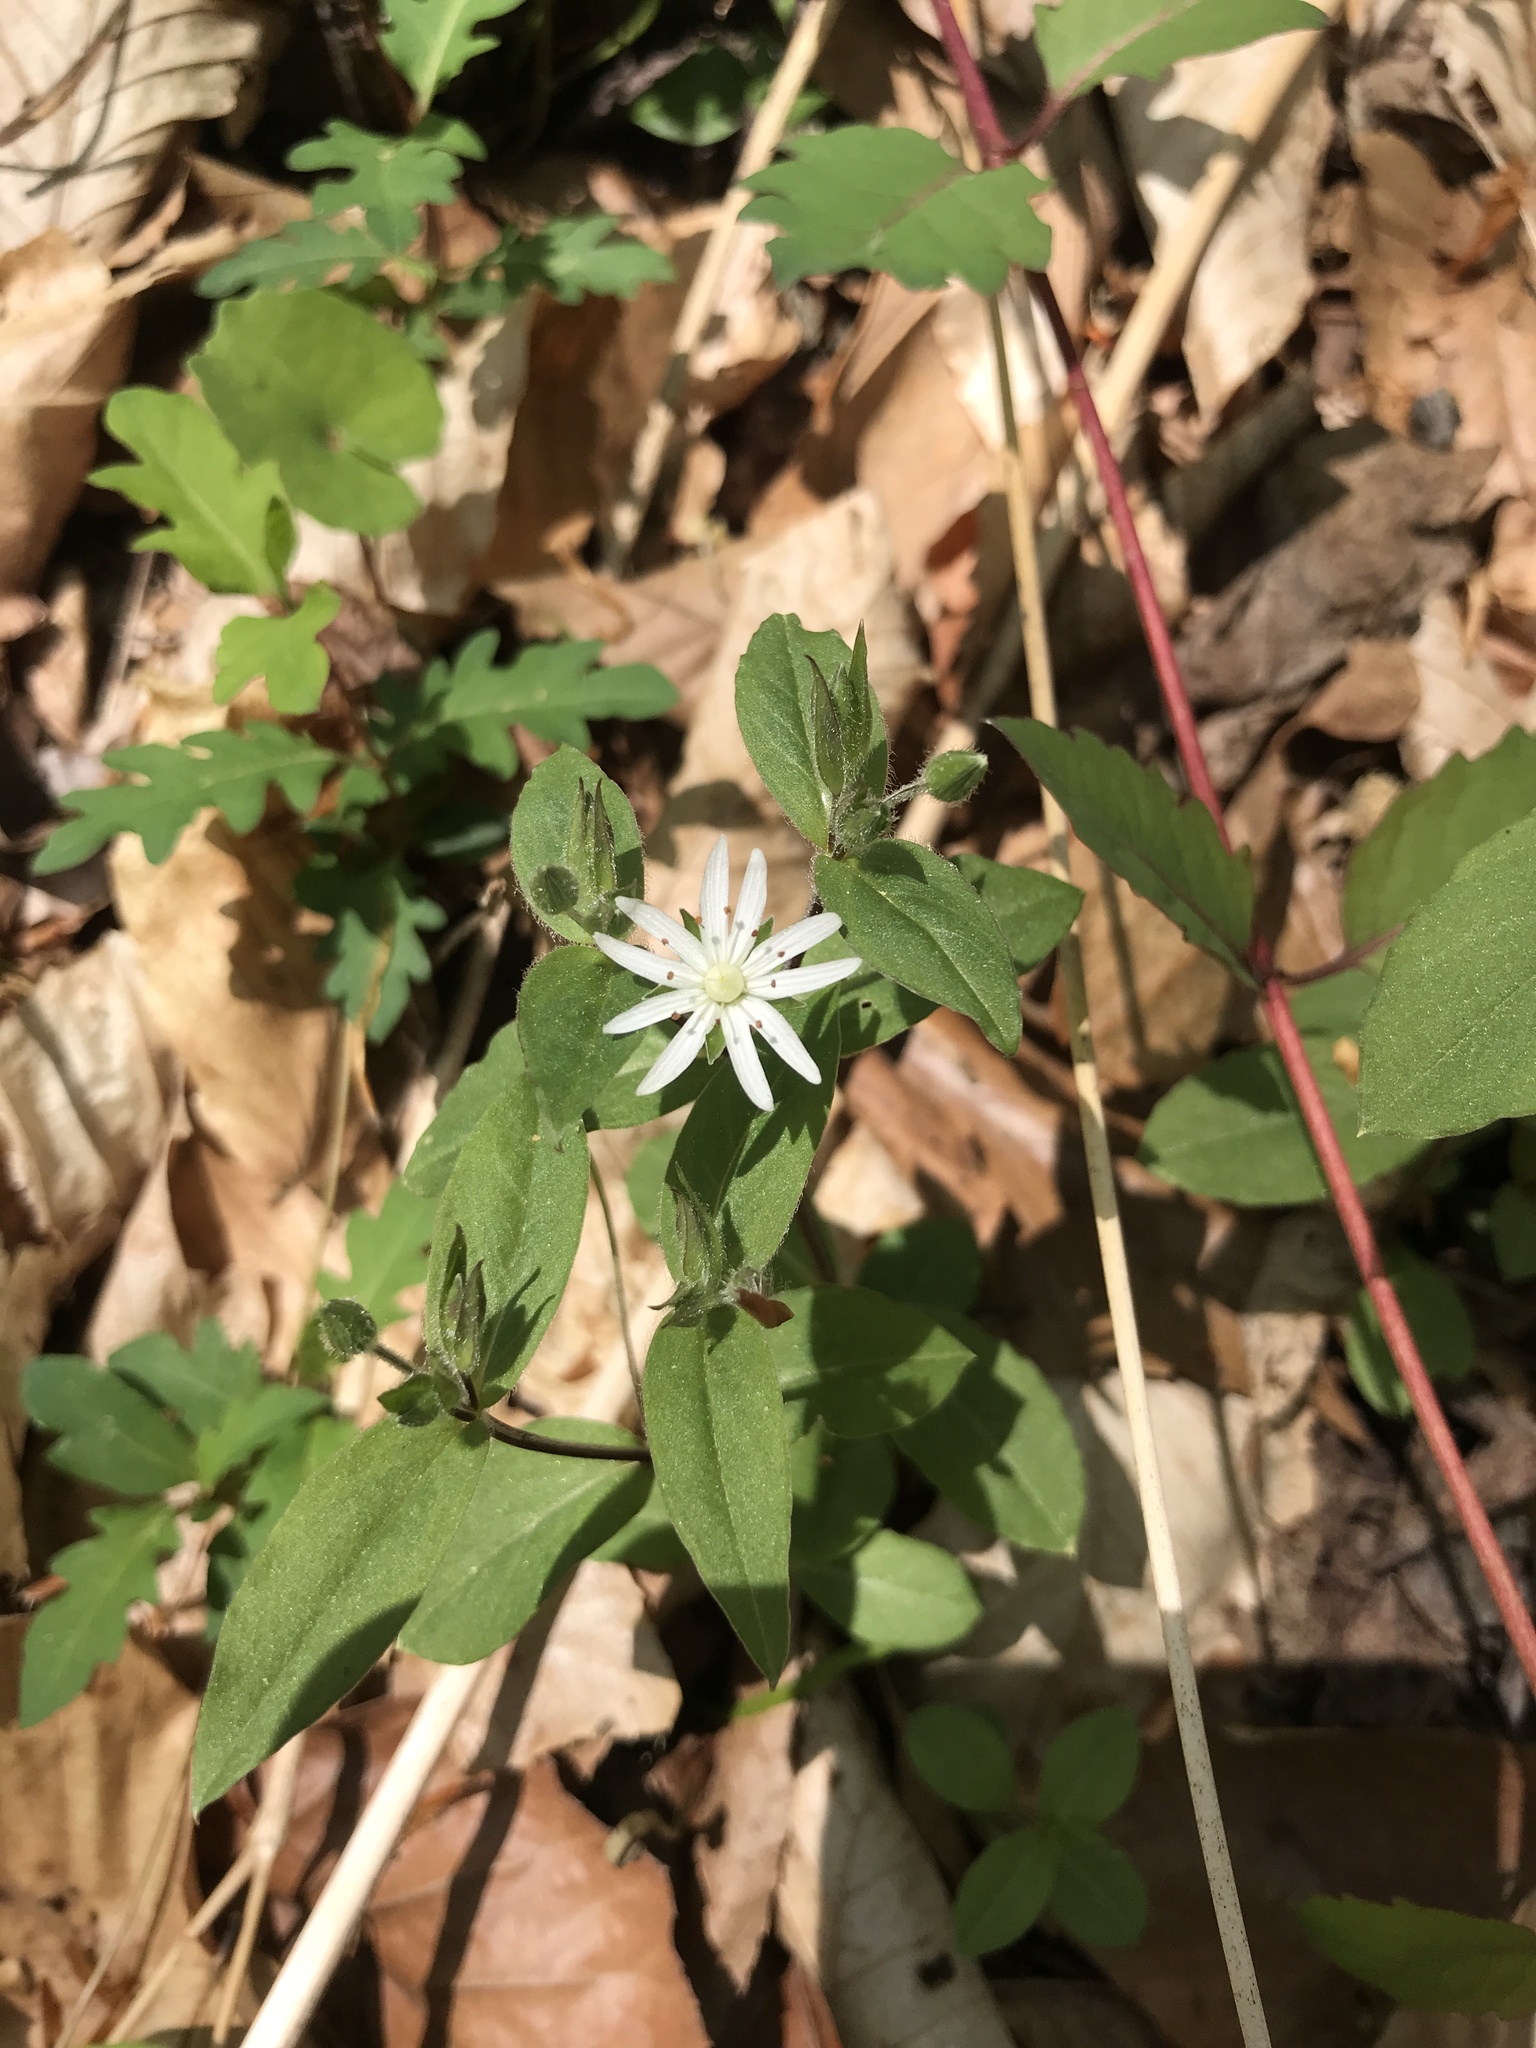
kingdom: Plantae
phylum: Tracheophyta
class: Magnoliopsida
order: Caryophyllales
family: Caryophyllaceae
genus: Stellaria
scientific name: Stellaria pubera
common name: Star chickweed
